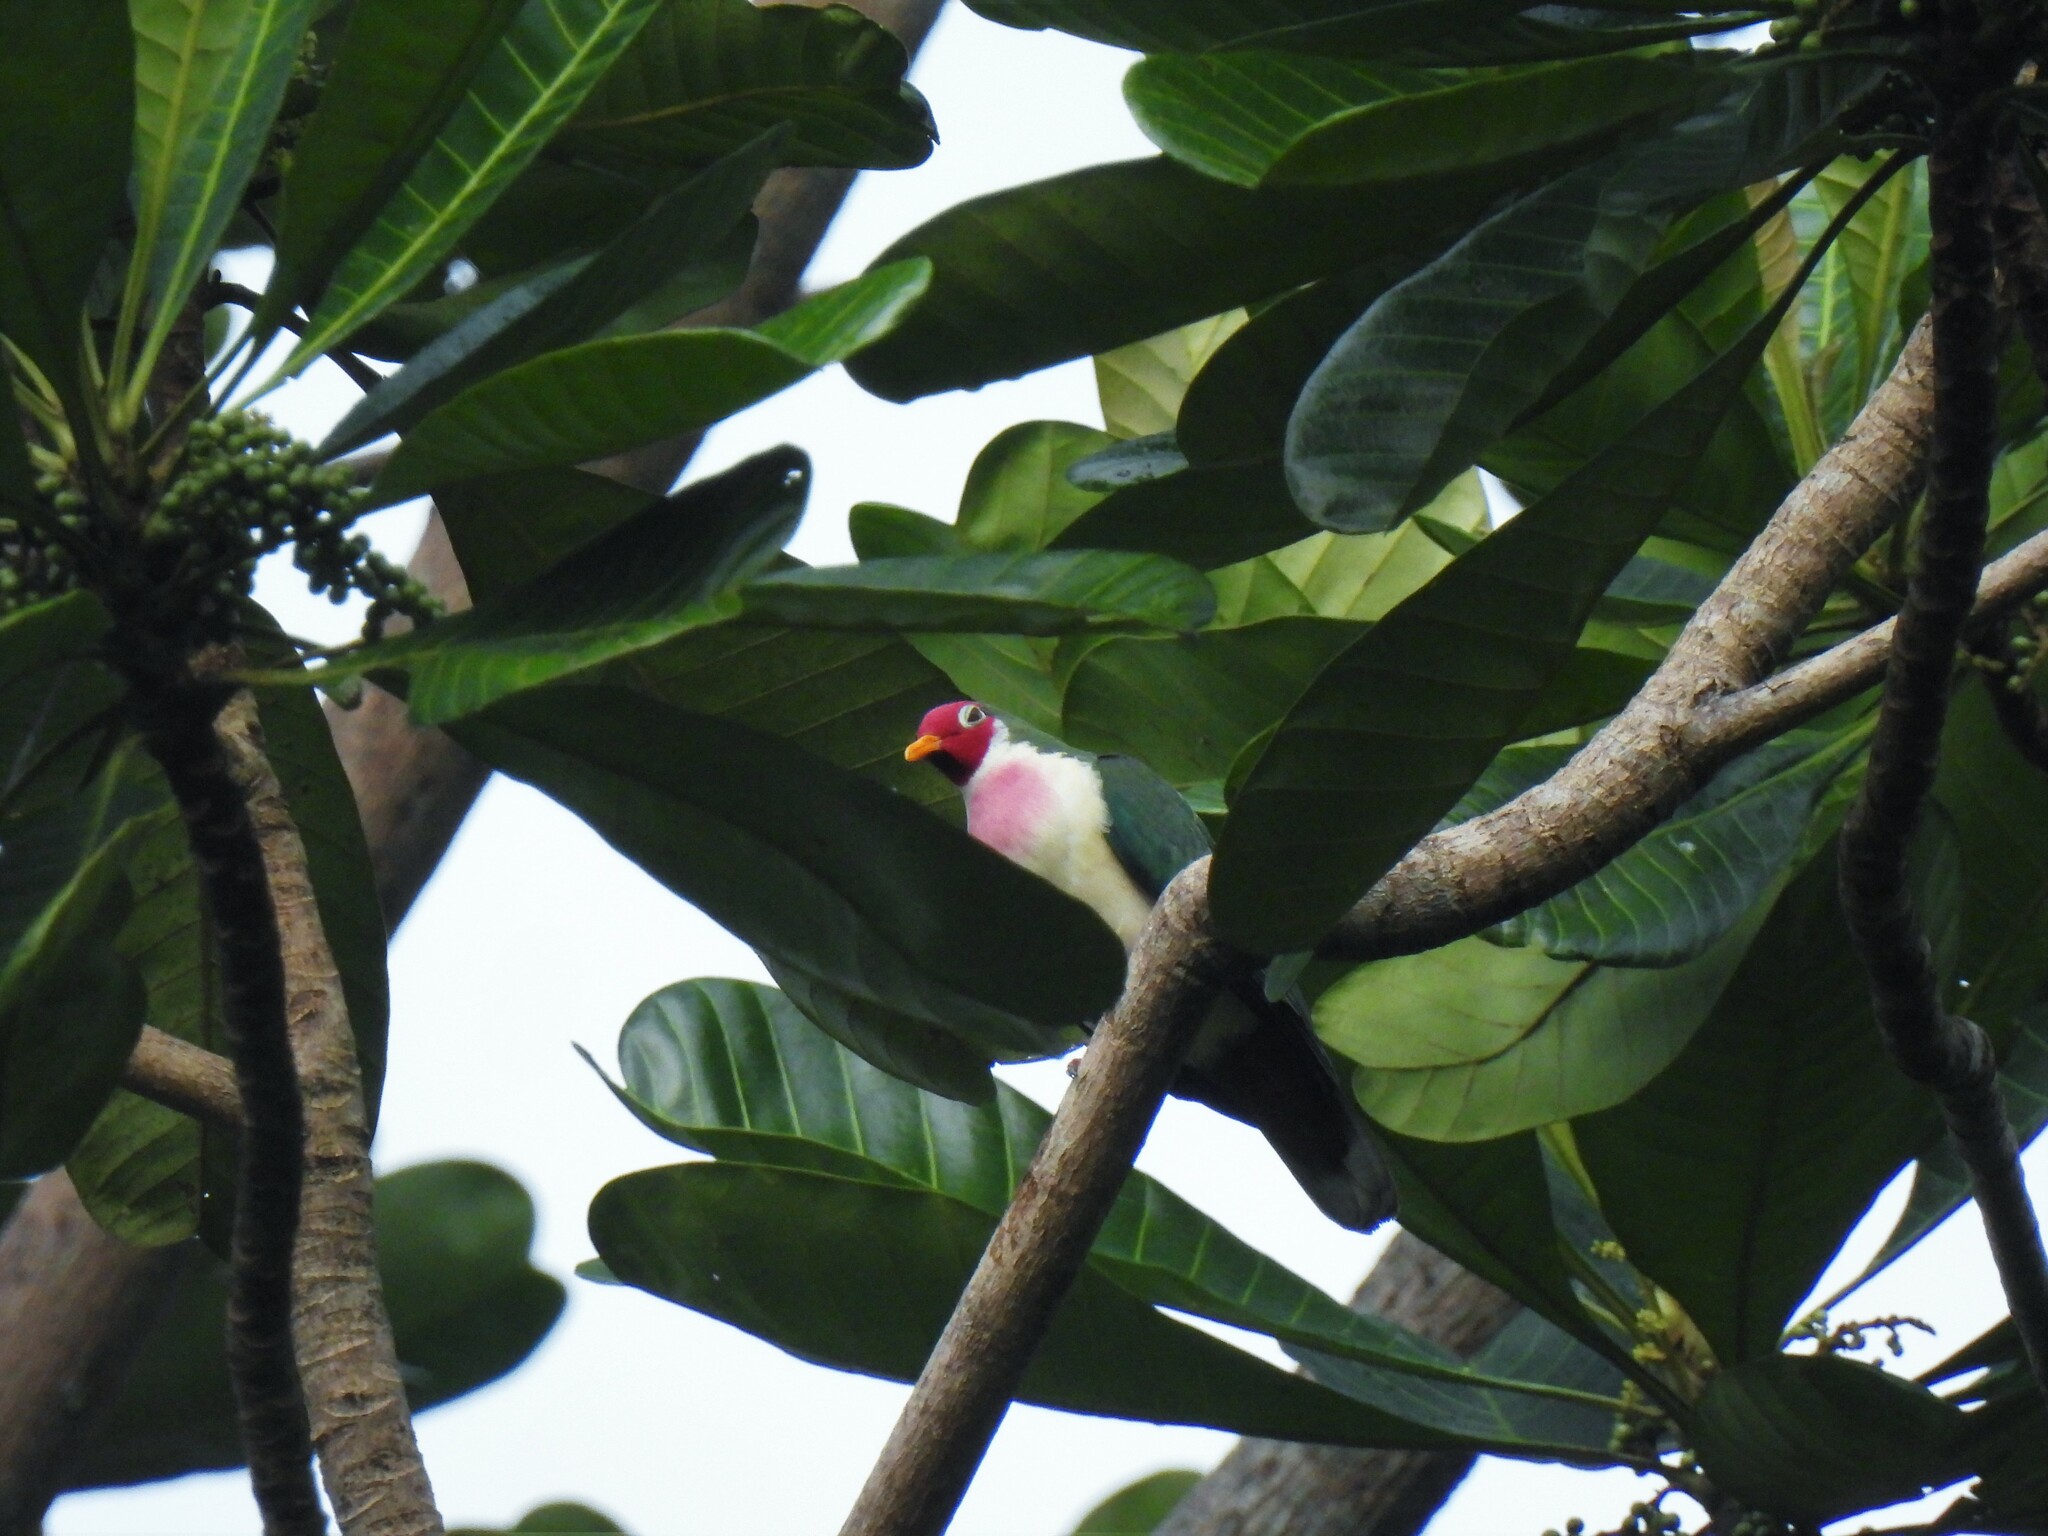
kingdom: Animalia
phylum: Chordata
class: Aves
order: Columbiformes
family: Columbidae
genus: Ptilinopus
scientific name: Ptilinopus jambu
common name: Jambu fruit dove
